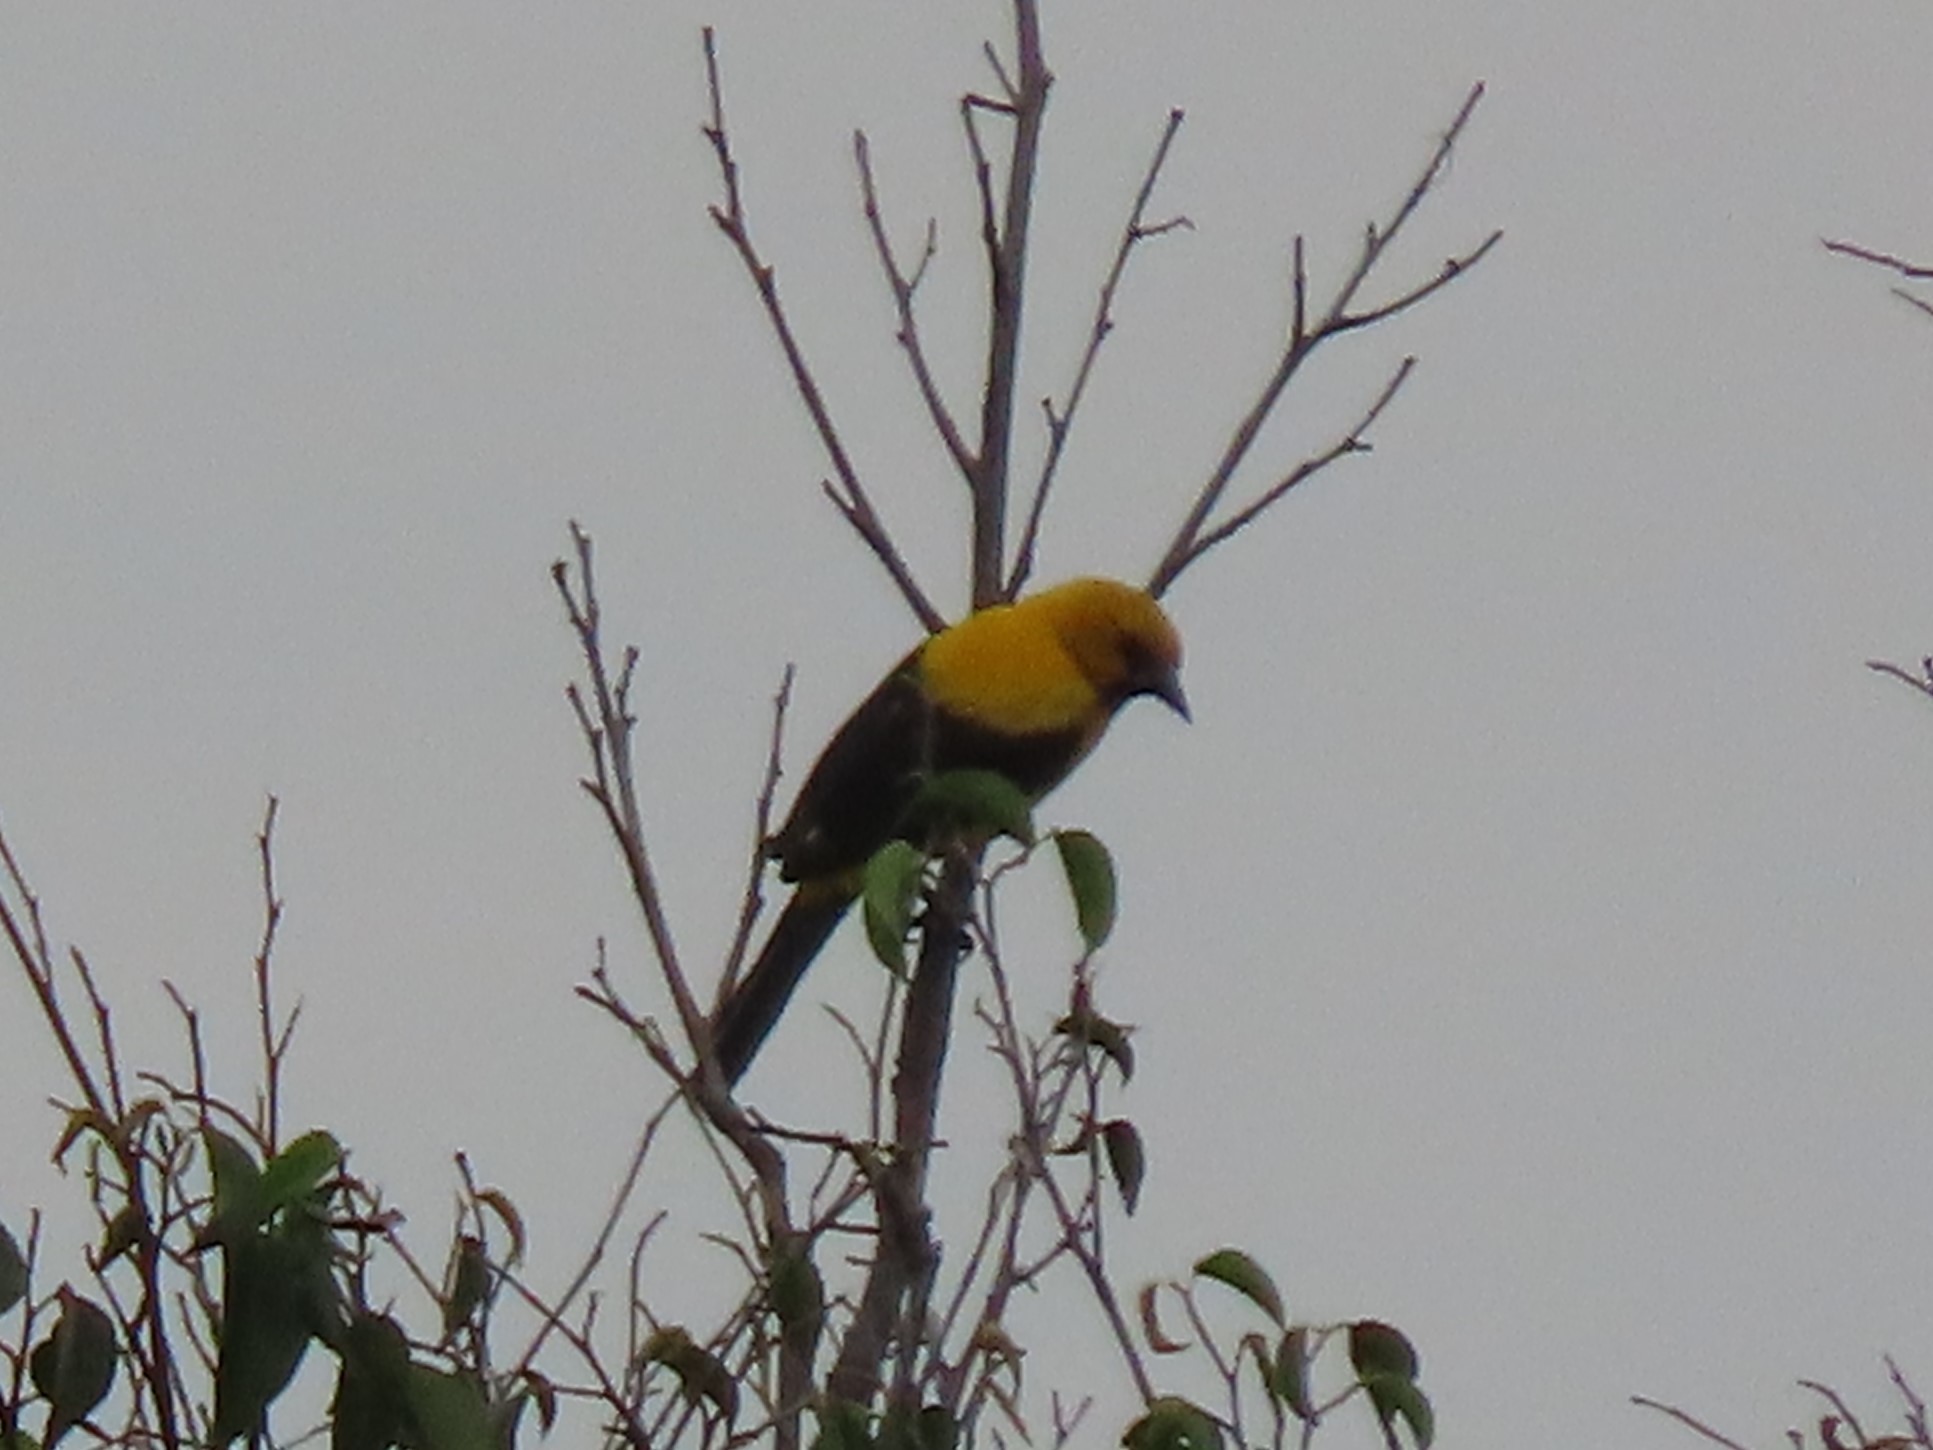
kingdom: Animalia
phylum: Chordata
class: Aves
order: Passeriformes
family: Icteridae
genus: Icterus
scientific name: Icterus nigrogularis
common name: Yellow oriole
